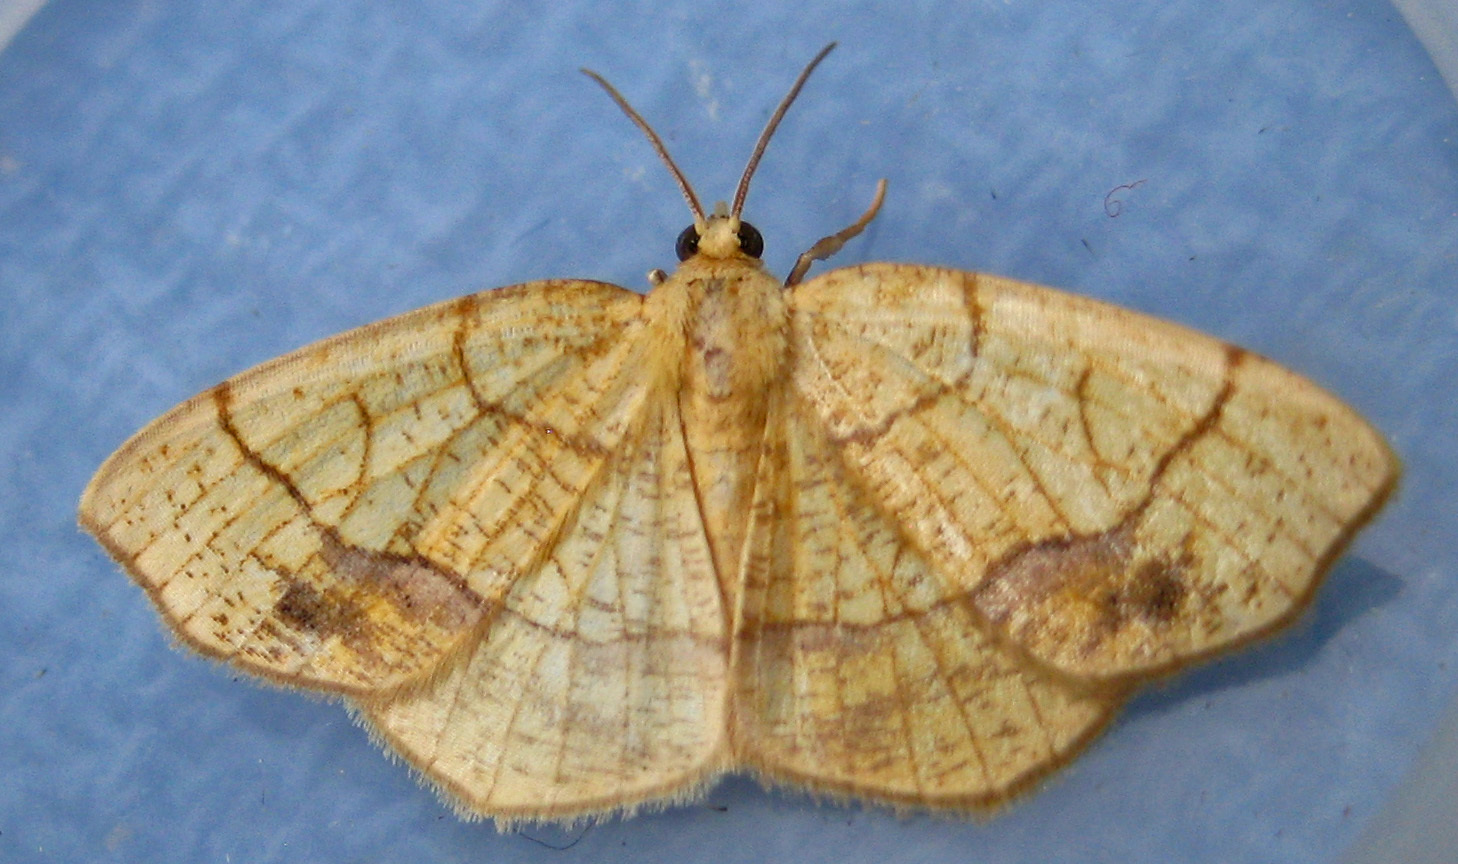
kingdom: Animalia
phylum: Arthropoda
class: Insecta
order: Lepidoptera
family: Geometridae
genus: Nematocampa
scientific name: Nematocampa resistaria
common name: Horned spanworm moth
